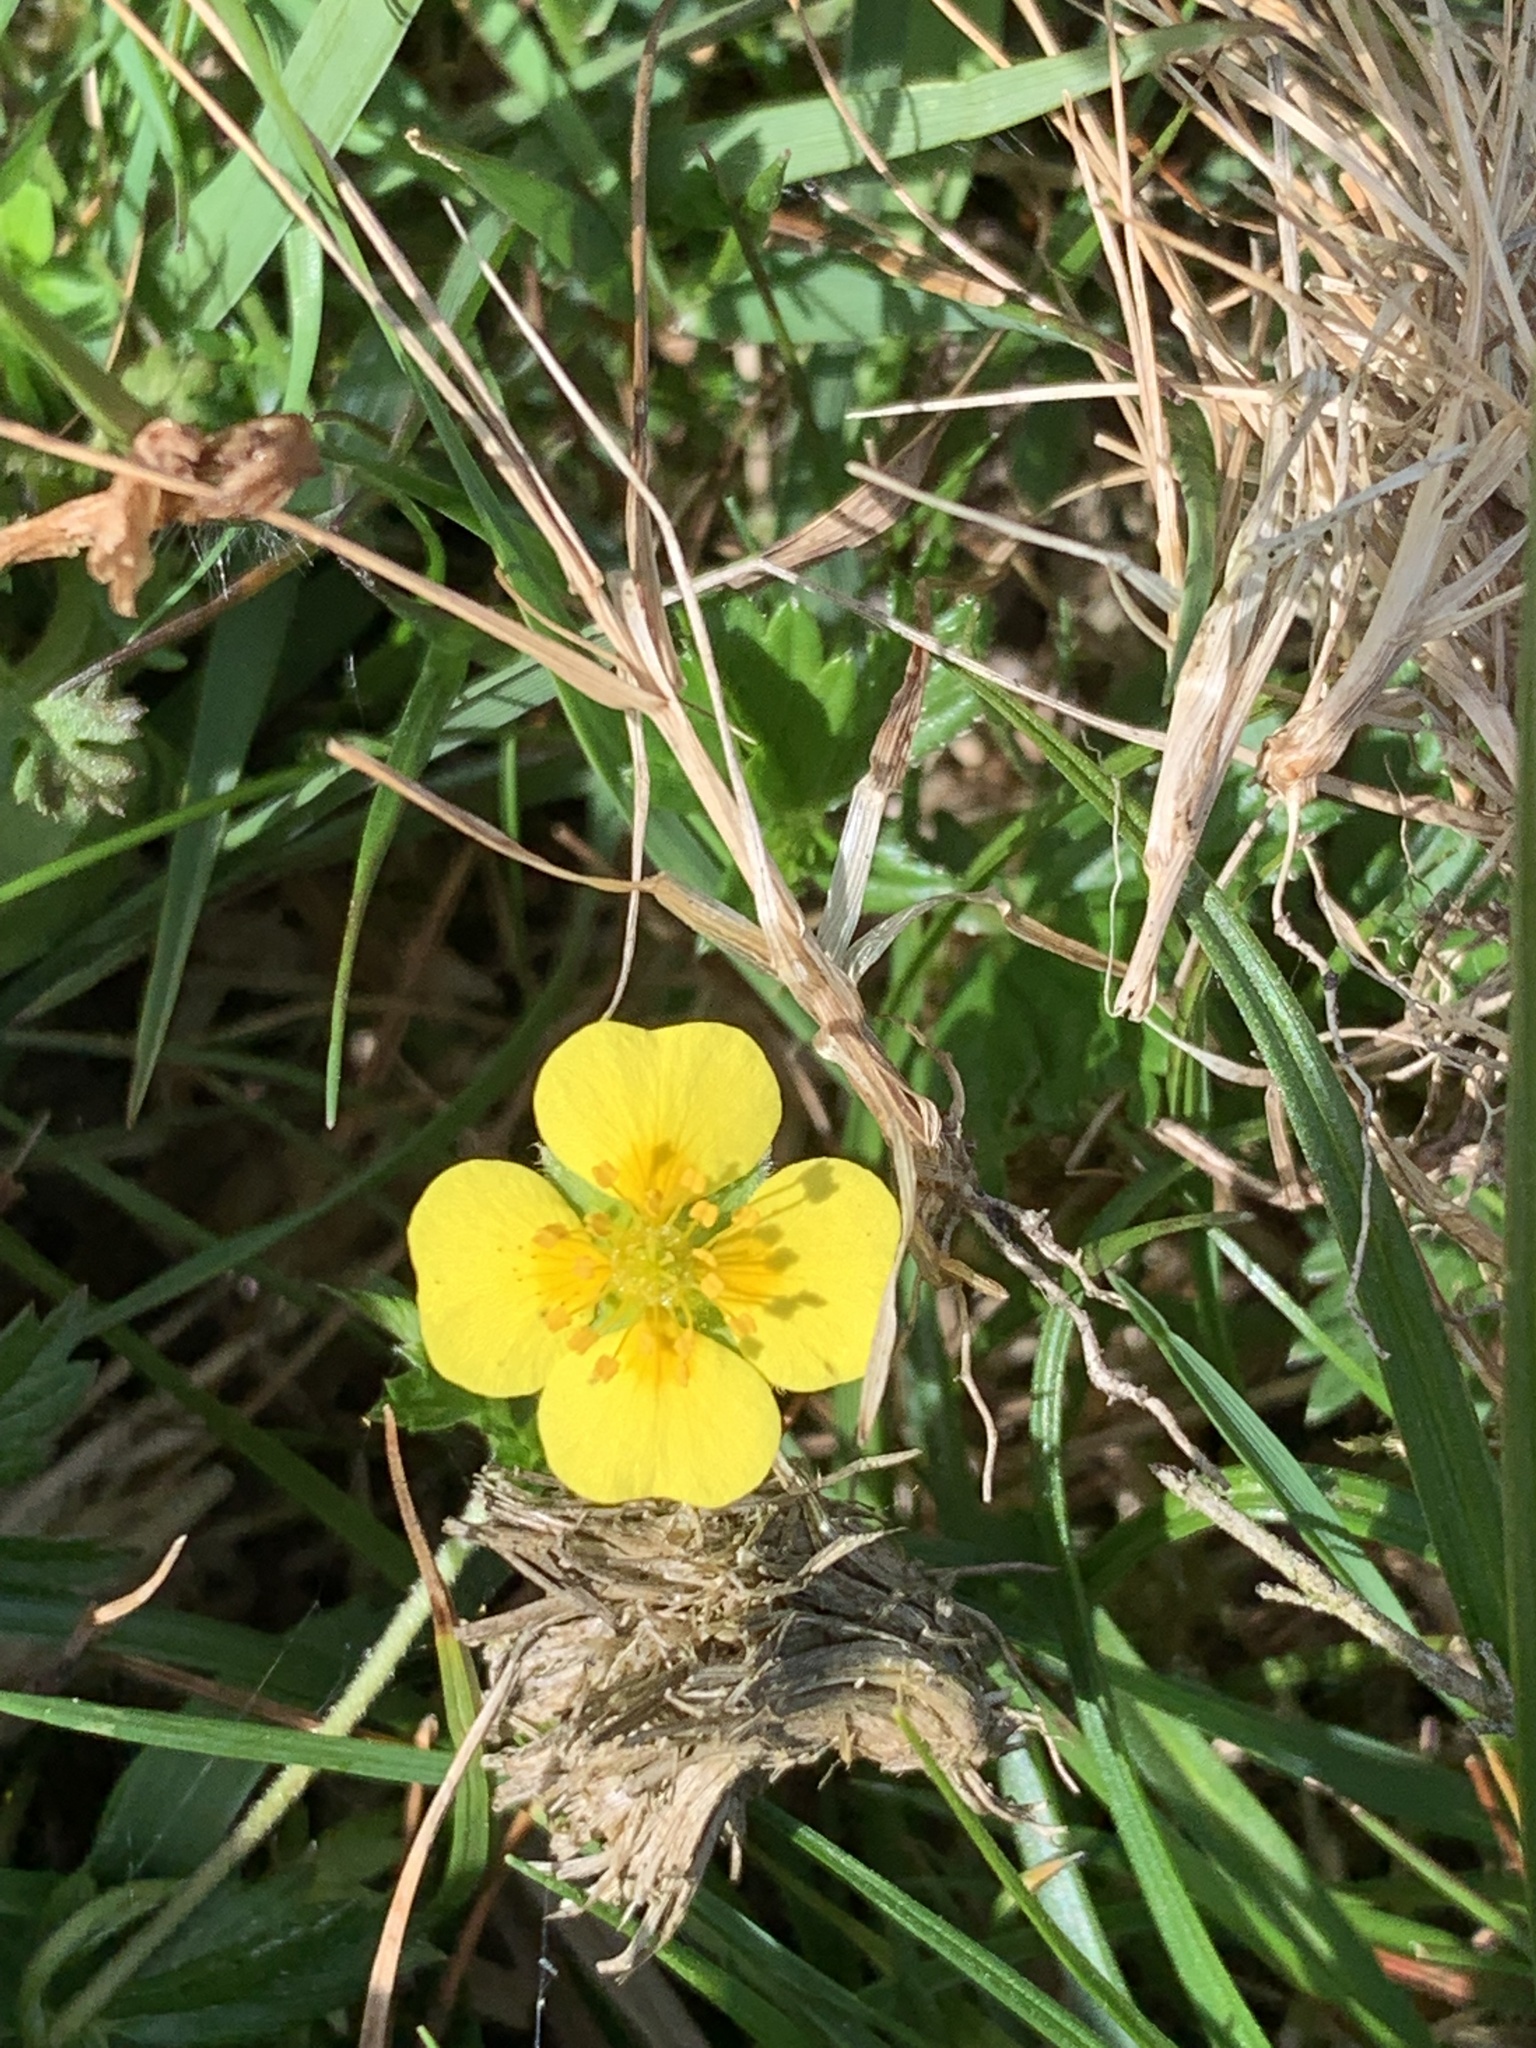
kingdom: Plantae
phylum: Tracheophyta
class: Magnoliopsida
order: Rosales
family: Rosaceae
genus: Potentilla
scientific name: Potentilla erecta
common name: Tormentil
